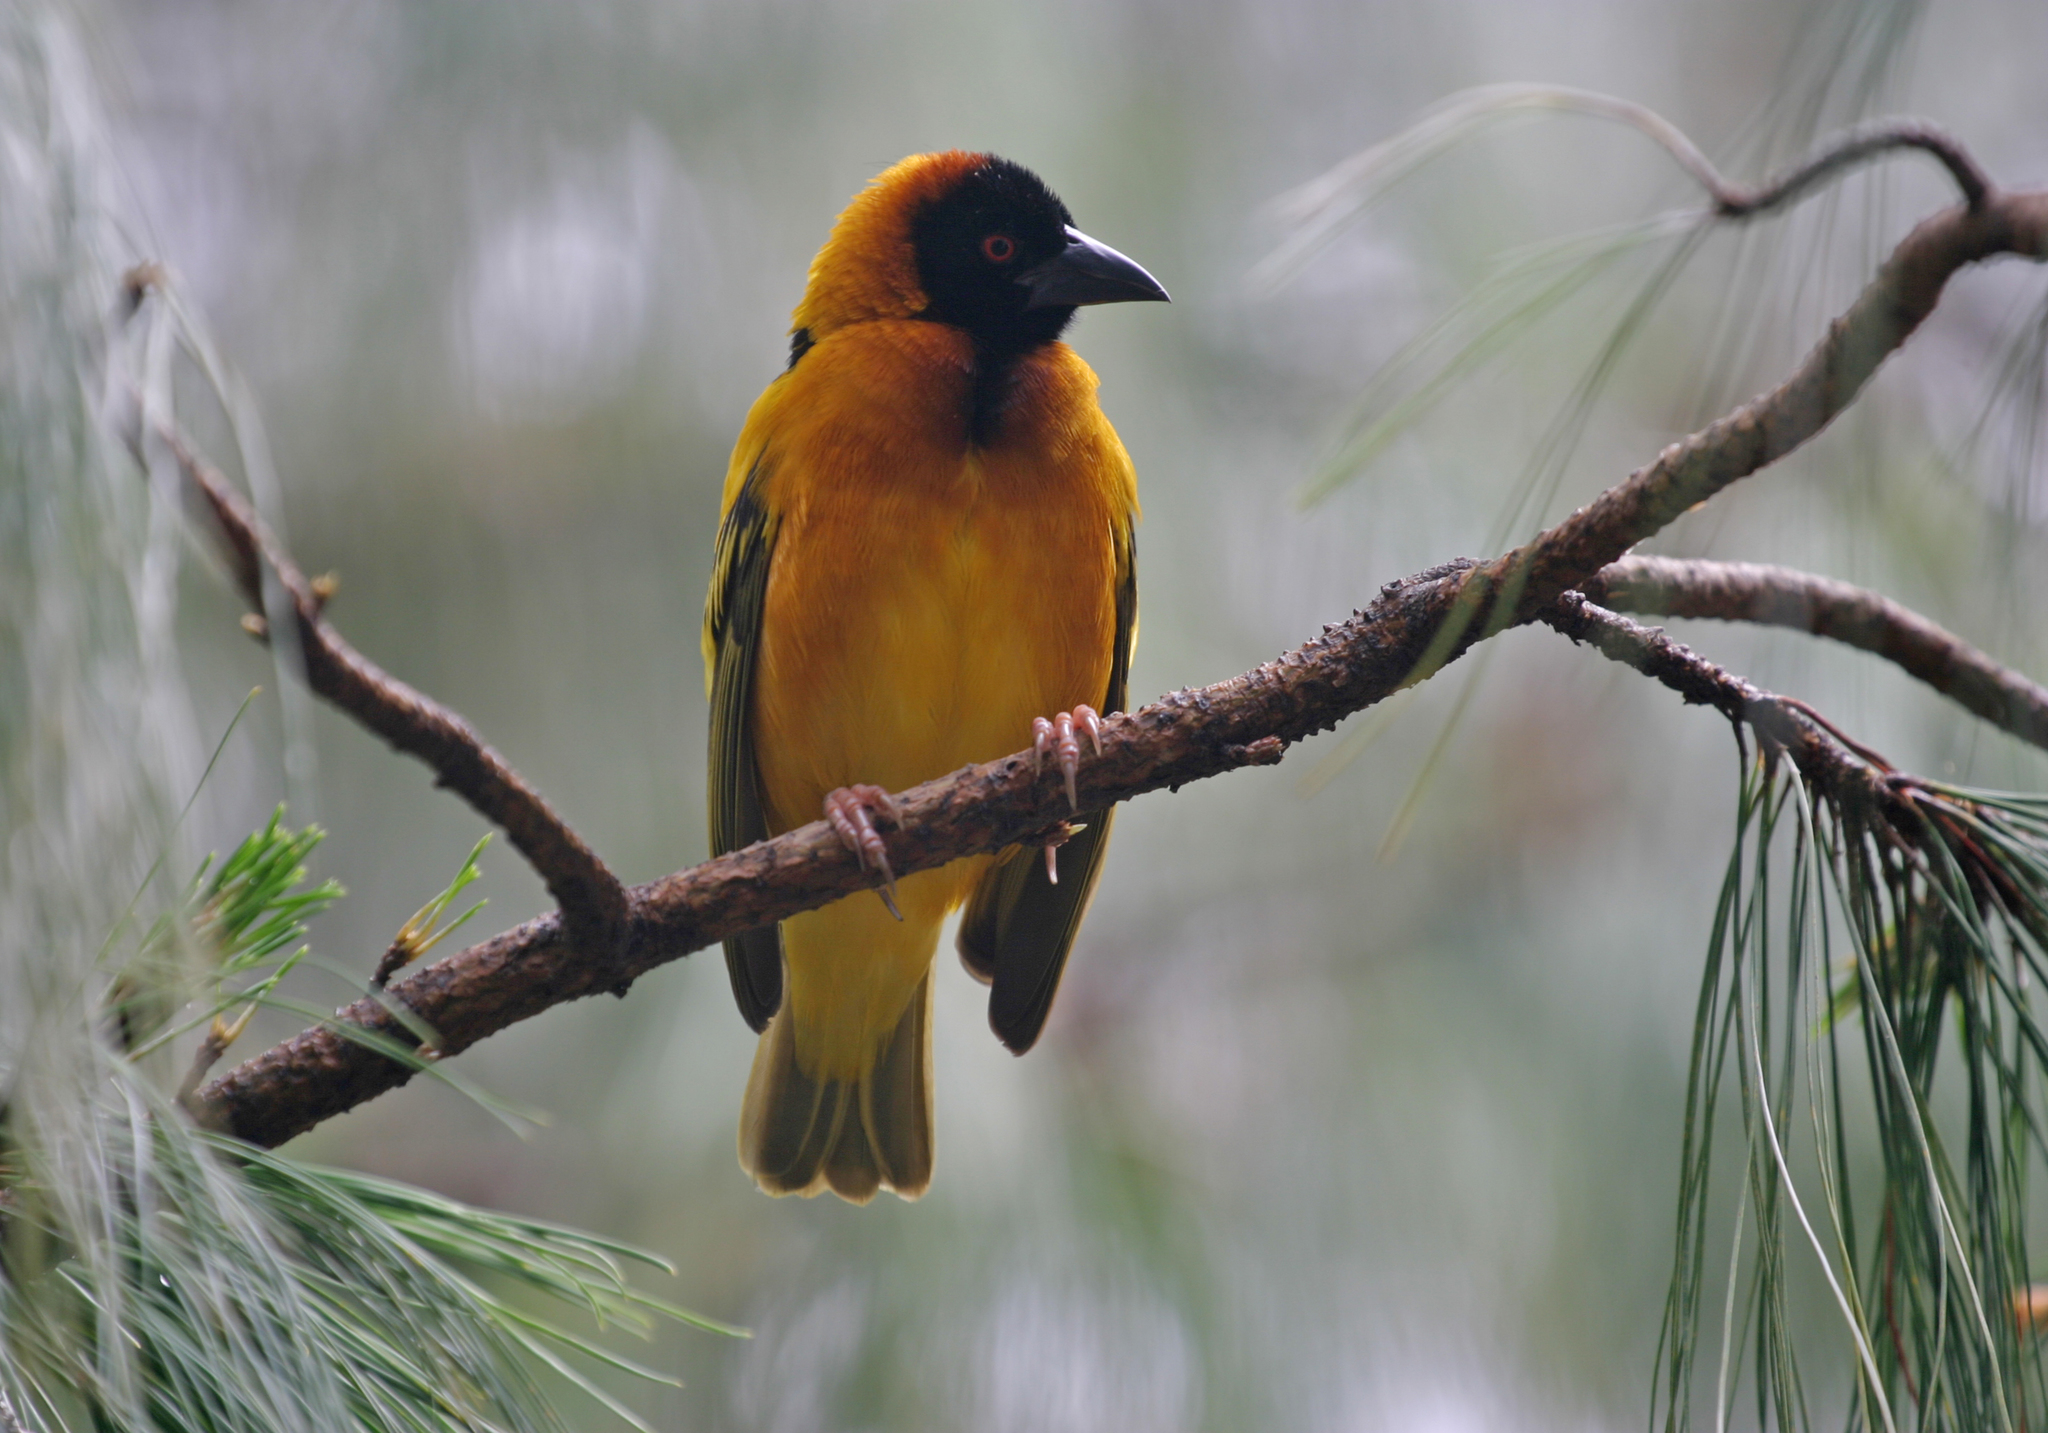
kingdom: Animalia
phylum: Chordata
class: Aves
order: Passeriformes
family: Ploceidae
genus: Ploceus
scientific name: Ploceus cucullatus
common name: Village weaver
